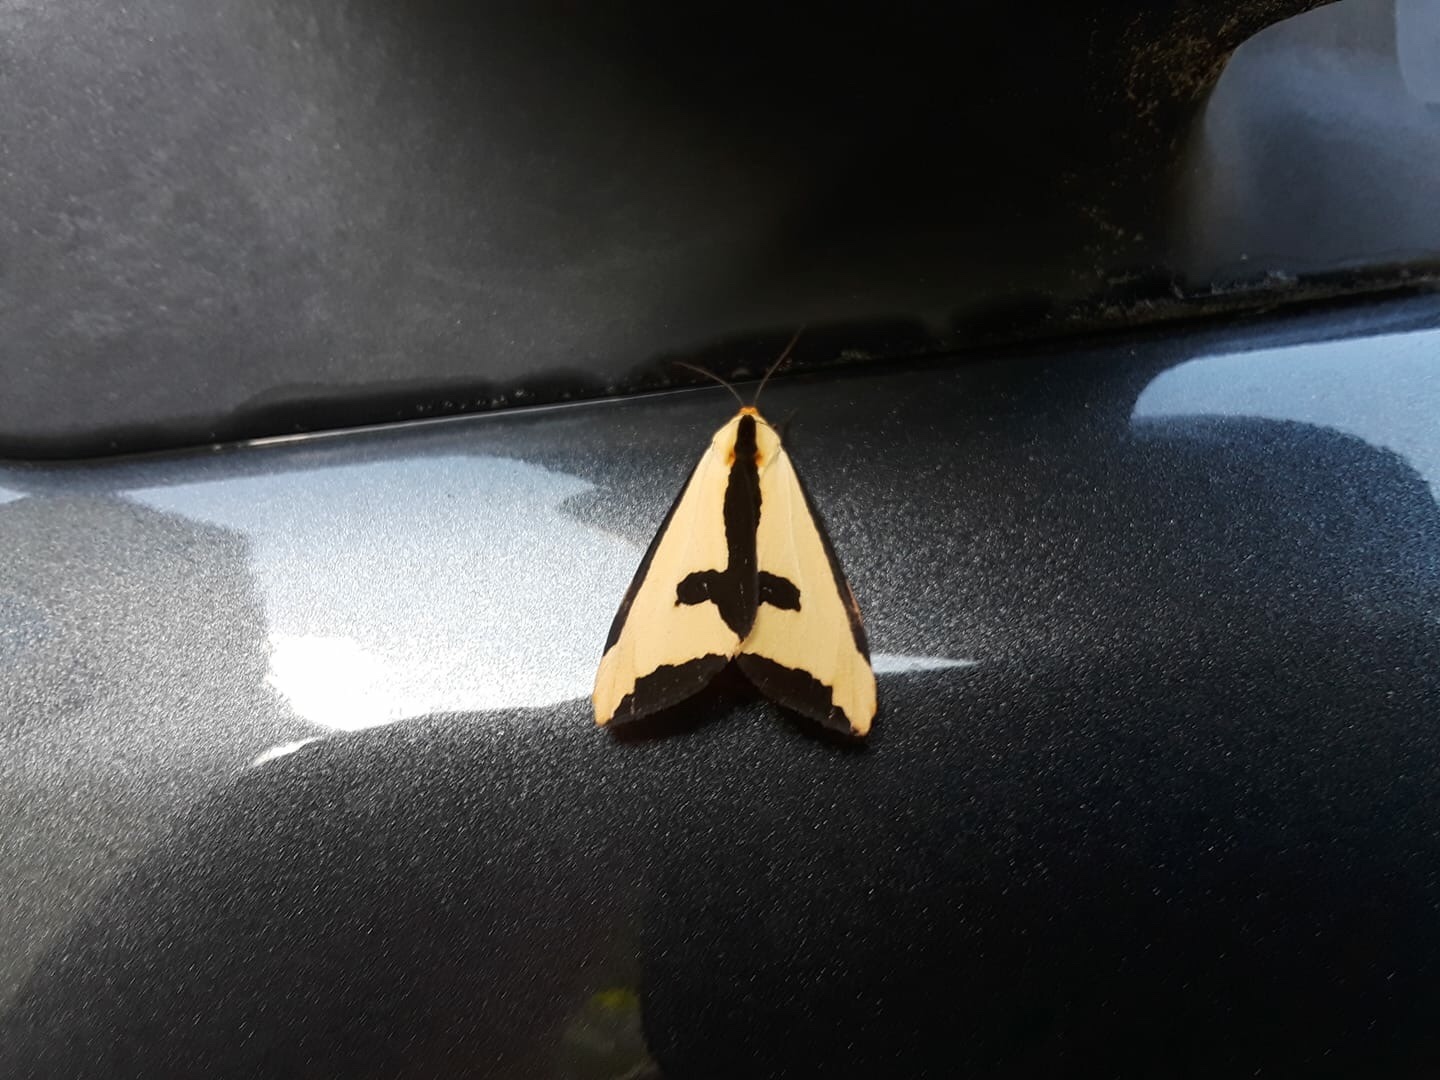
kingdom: Animalia
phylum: Arthropoda
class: Insecta
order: Lepidoptera
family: Erebidae
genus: Haploa
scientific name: Haploa clymene
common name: Clymene moth
